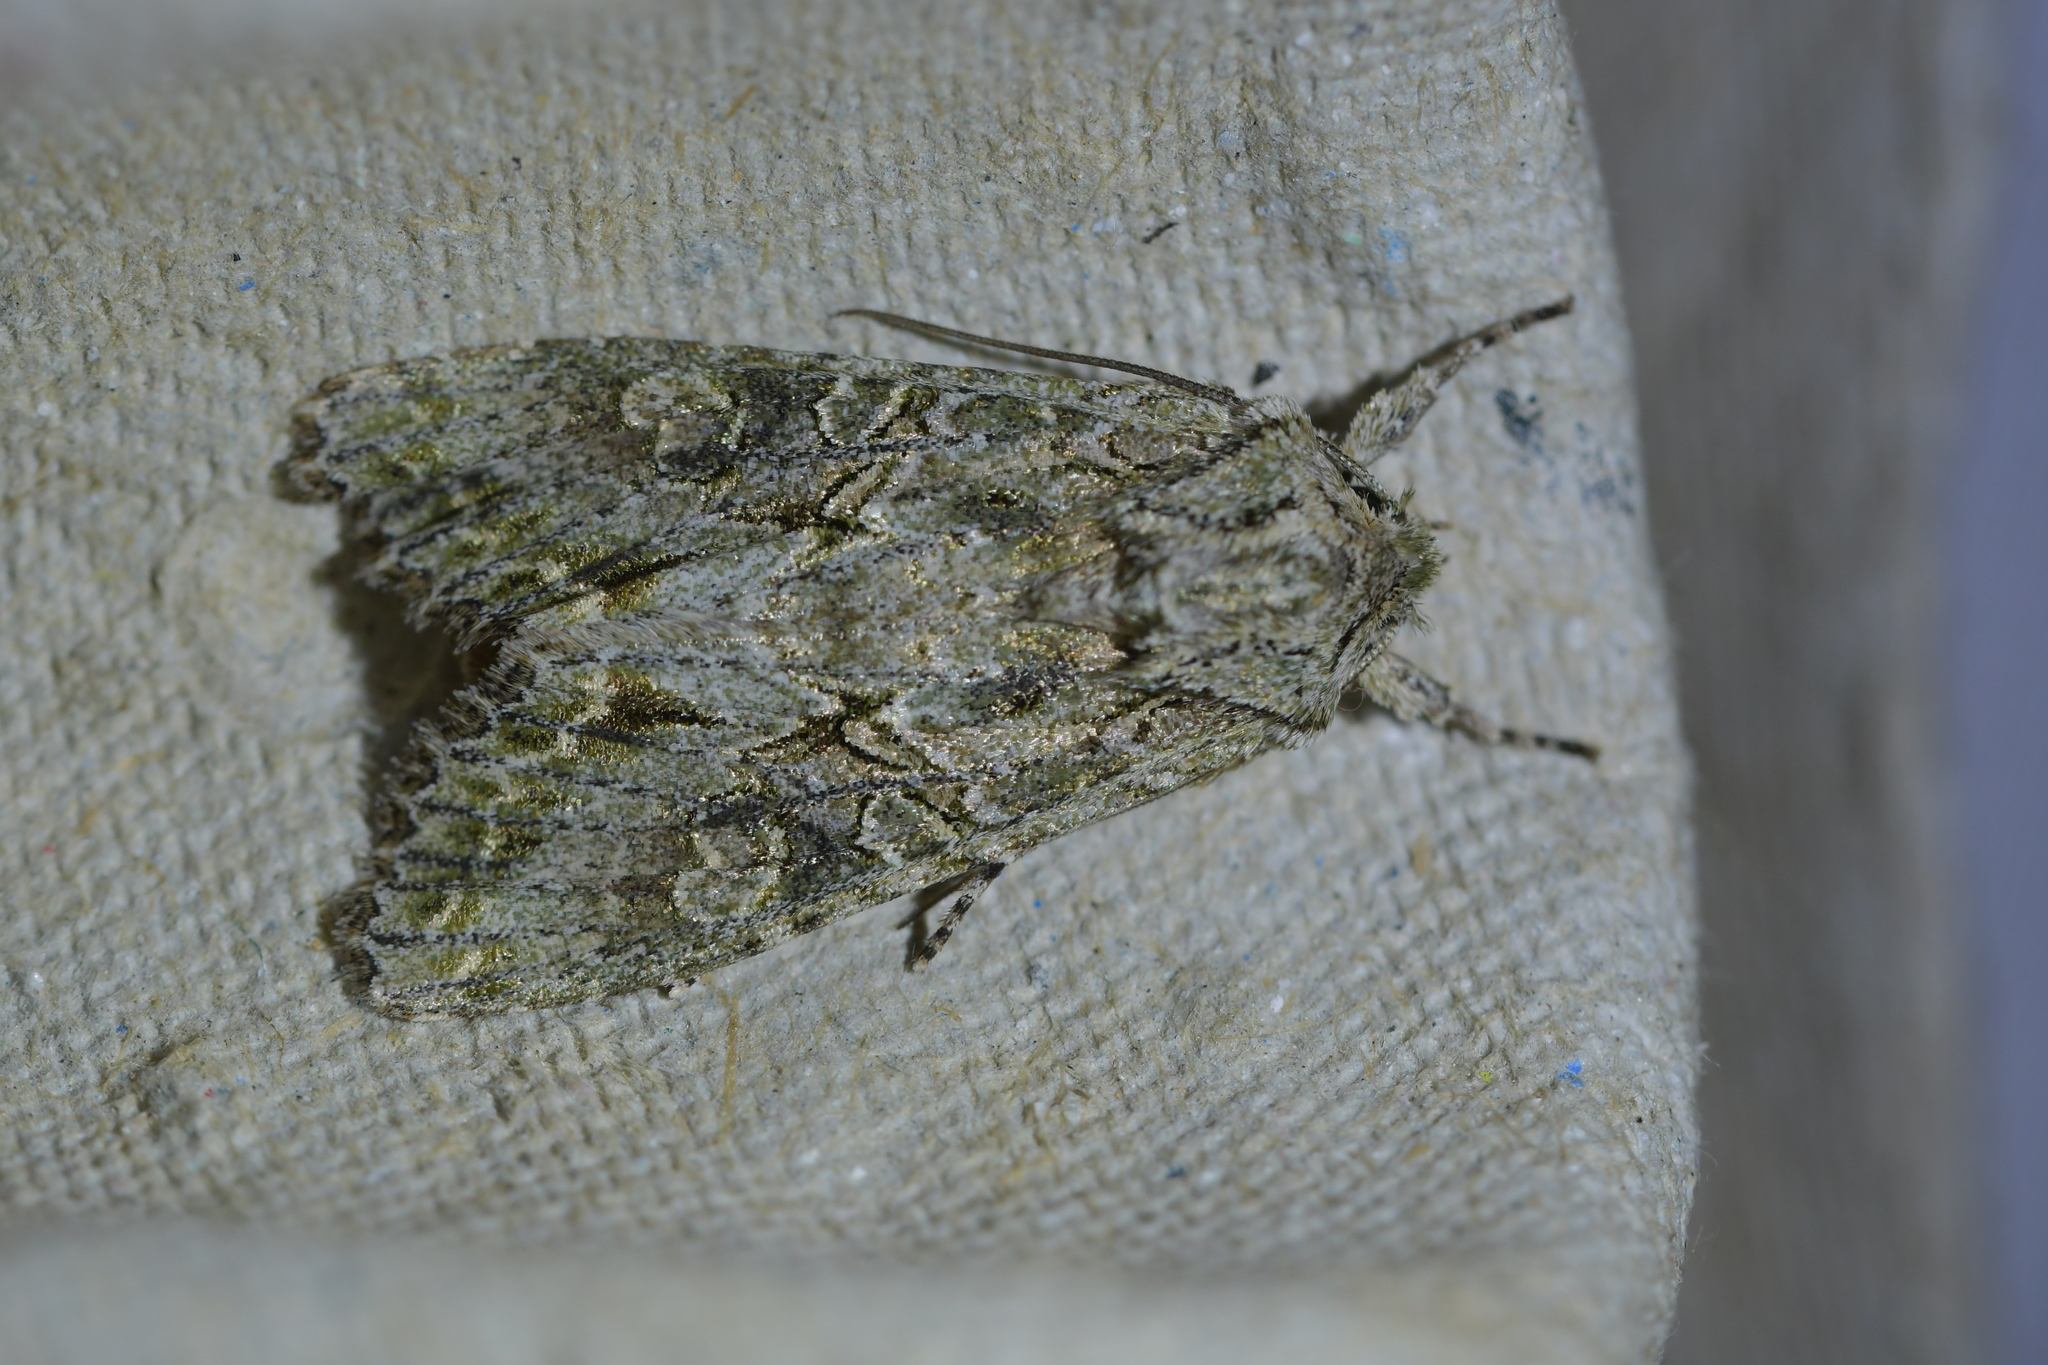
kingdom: Animalia
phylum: Arthropoda
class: Insecta
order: Lepidoptera
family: Noctuidae
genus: Ichneutica
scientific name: Ichneutica mutans
